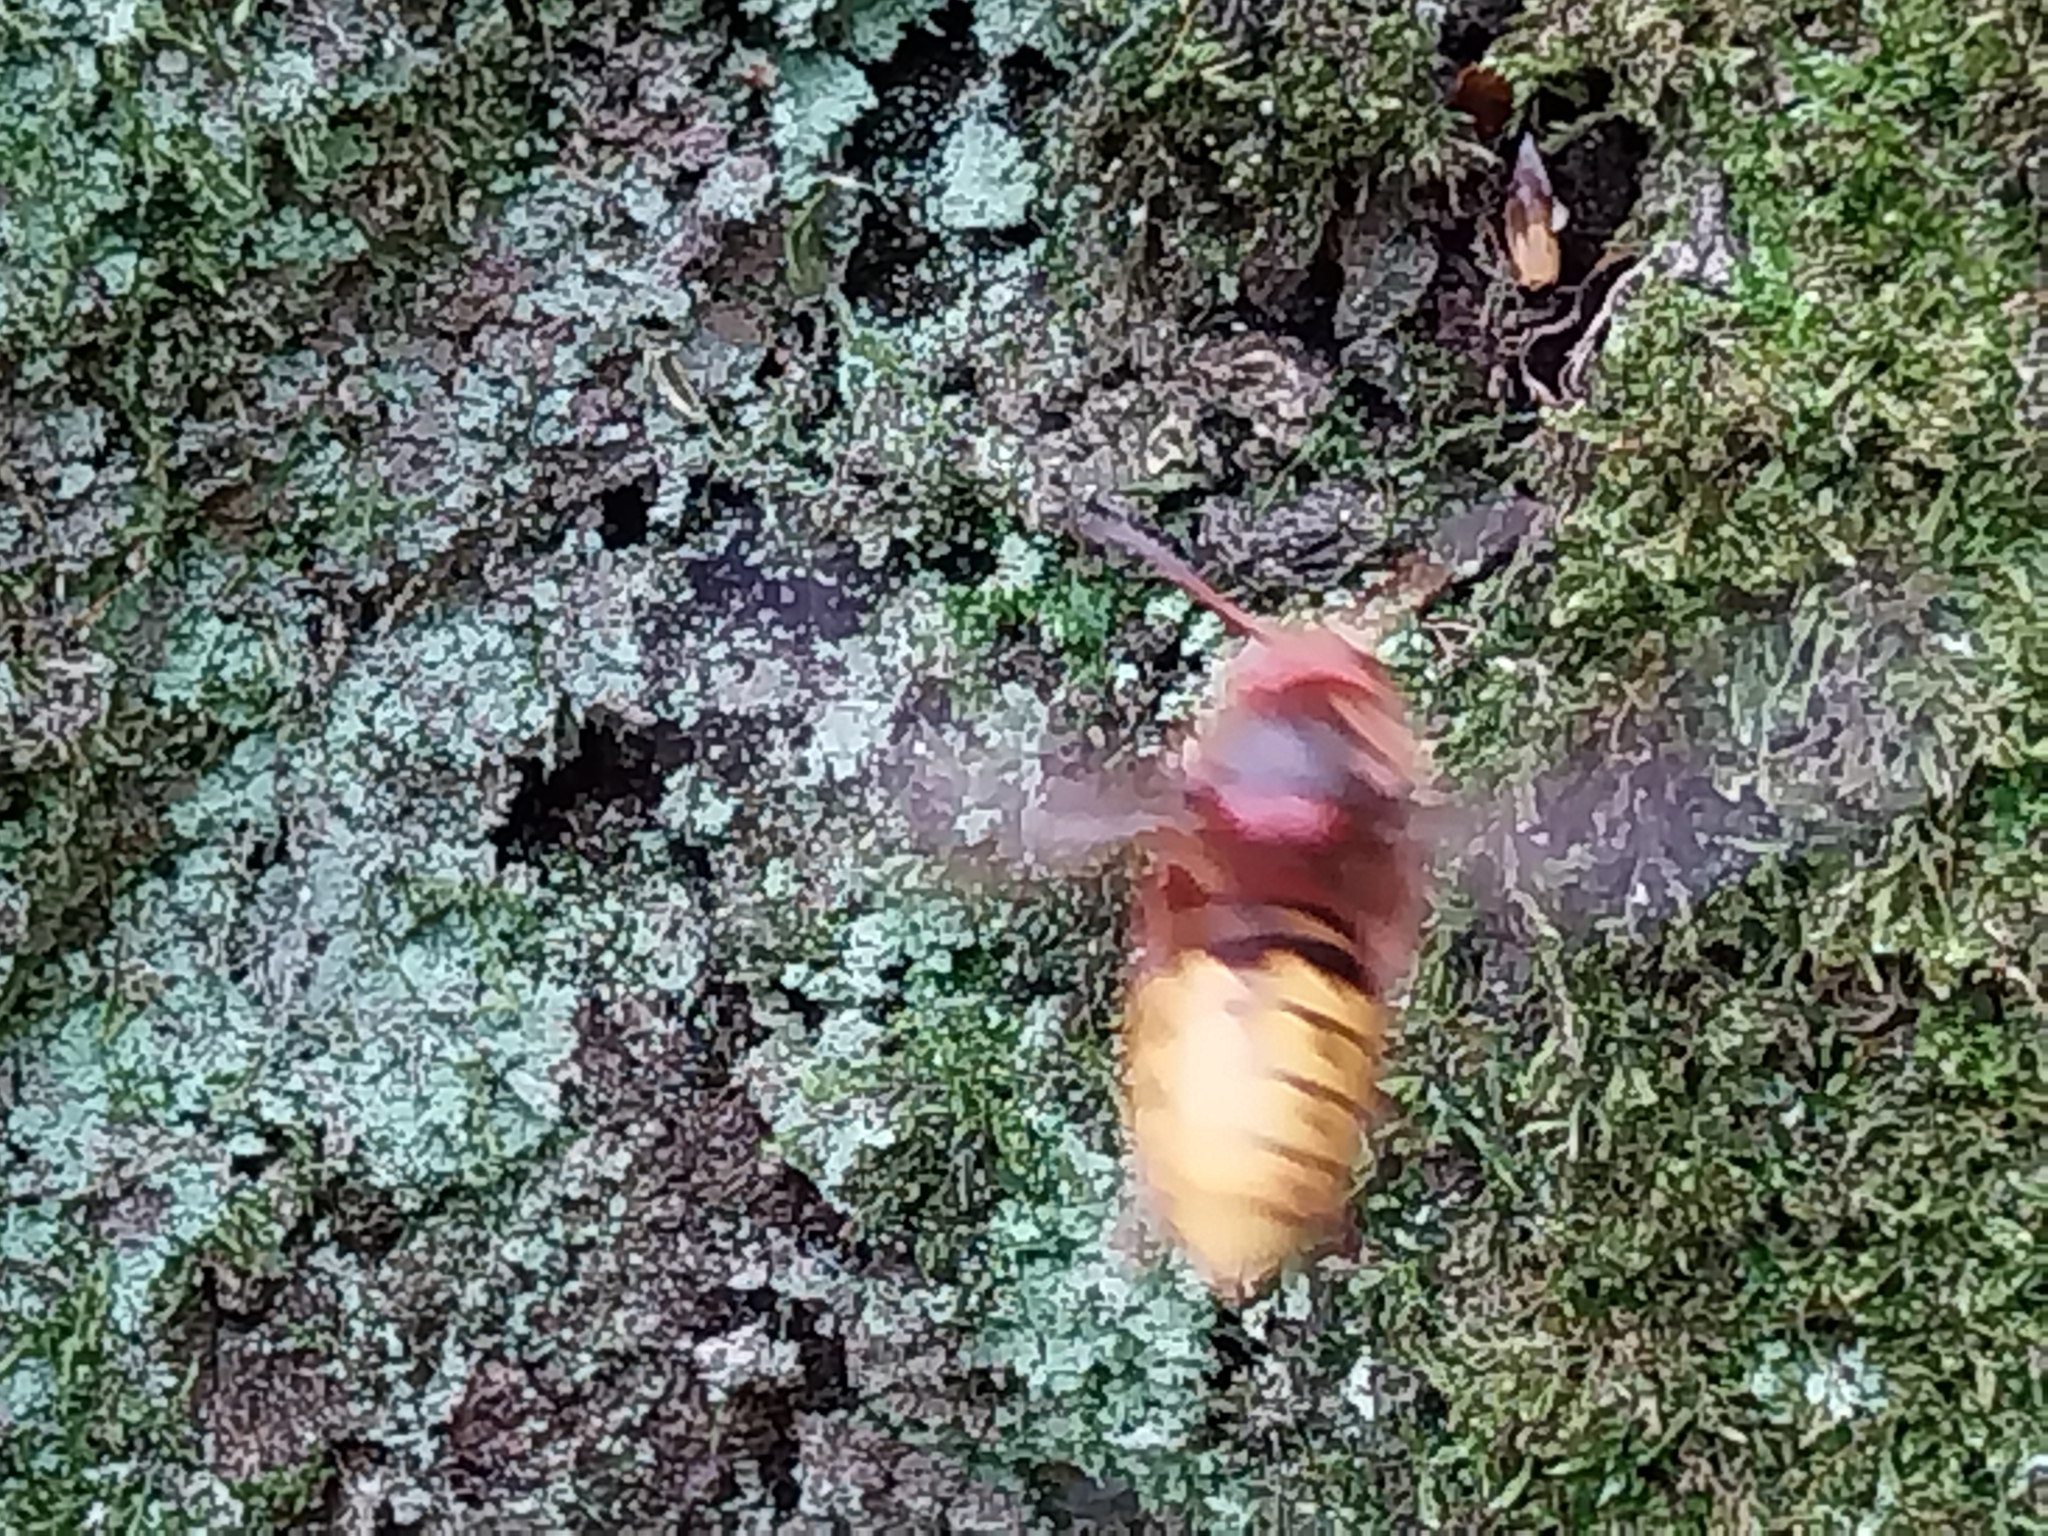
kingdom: Animalia
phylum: Arthropoda
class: Insecta
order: Hymenoptera
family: Vespidae
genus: Vespa
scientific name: Vespa crabro
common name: Hornet
